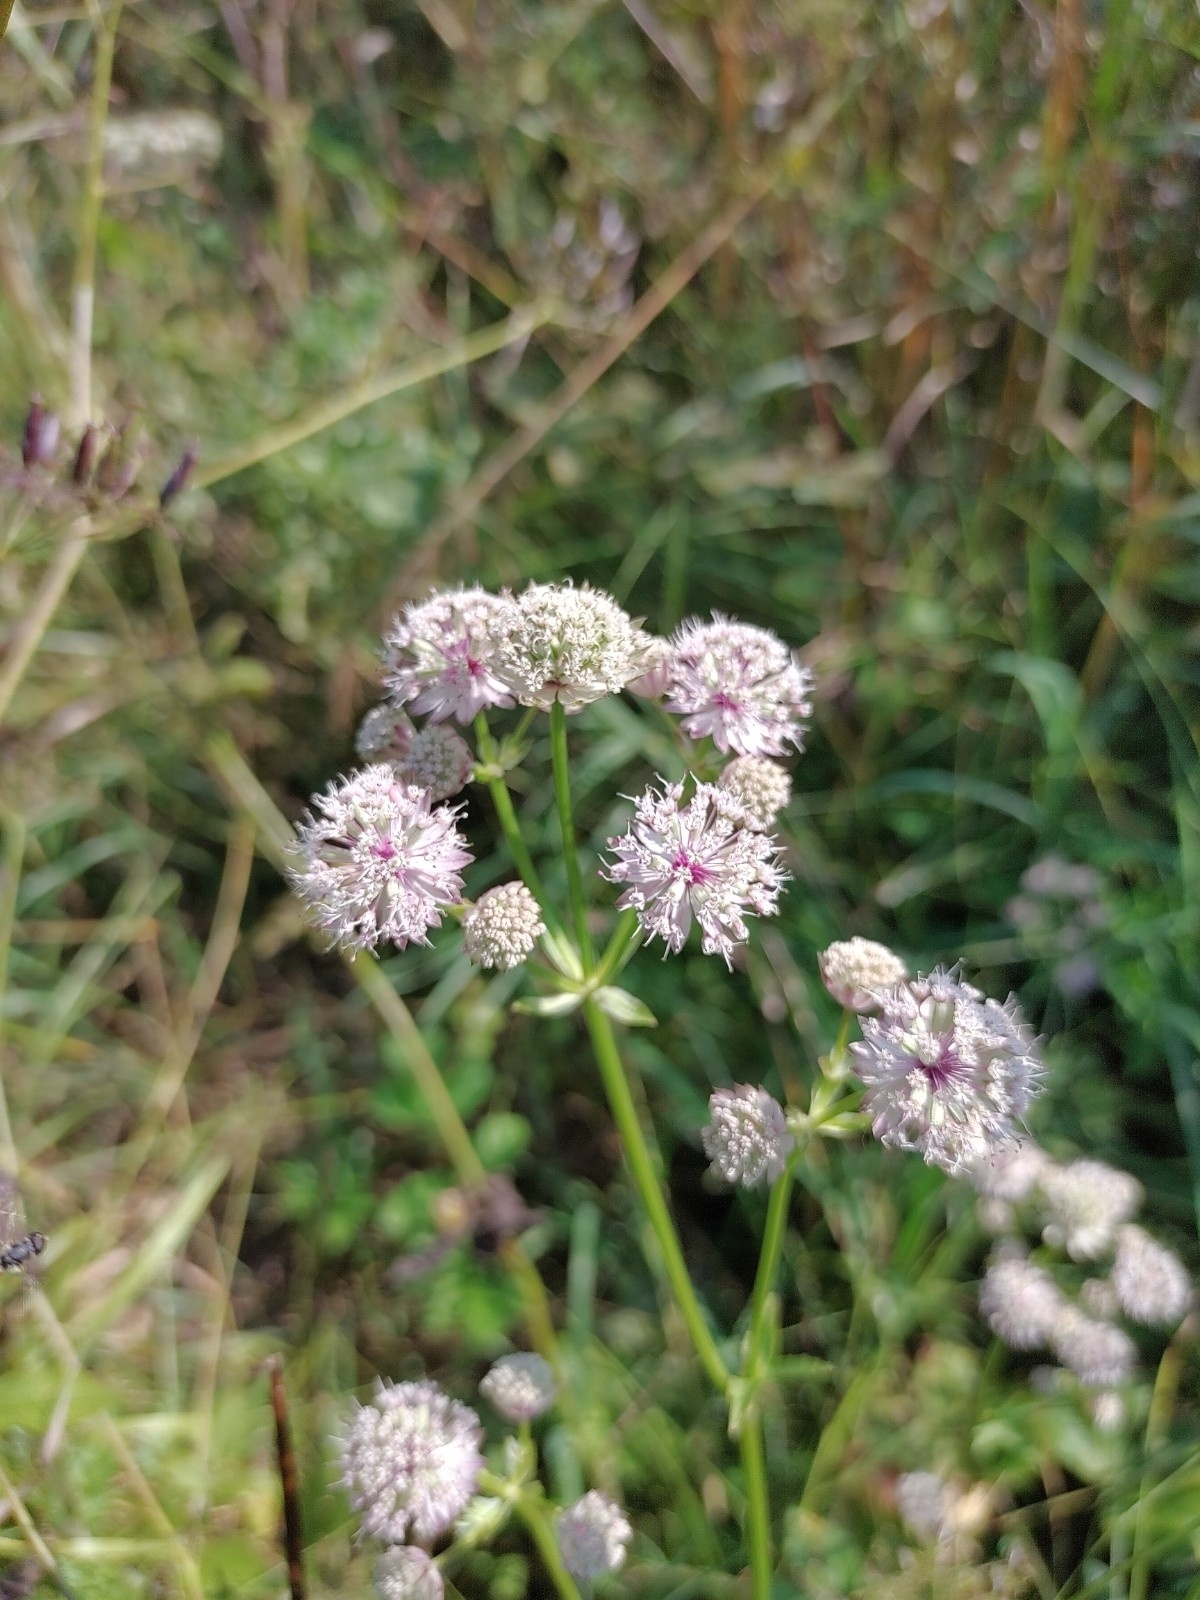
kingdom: Plantae
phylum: Tracheophyta
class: Magnoliopsida
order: Apiales
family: Apiaceae
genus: Astrantia
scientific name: Astrantia major
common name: Greater masterwort
